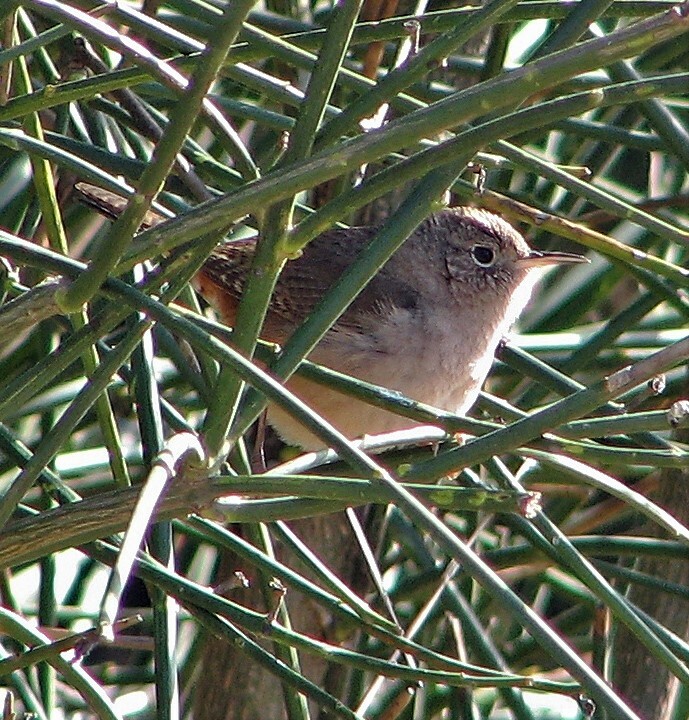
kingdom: Animalia
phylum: Chordata
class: Aves
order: Passeriformes
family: Troglodytidae
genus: Troglodytes
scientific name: Troglodytes aedon
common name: House wren
